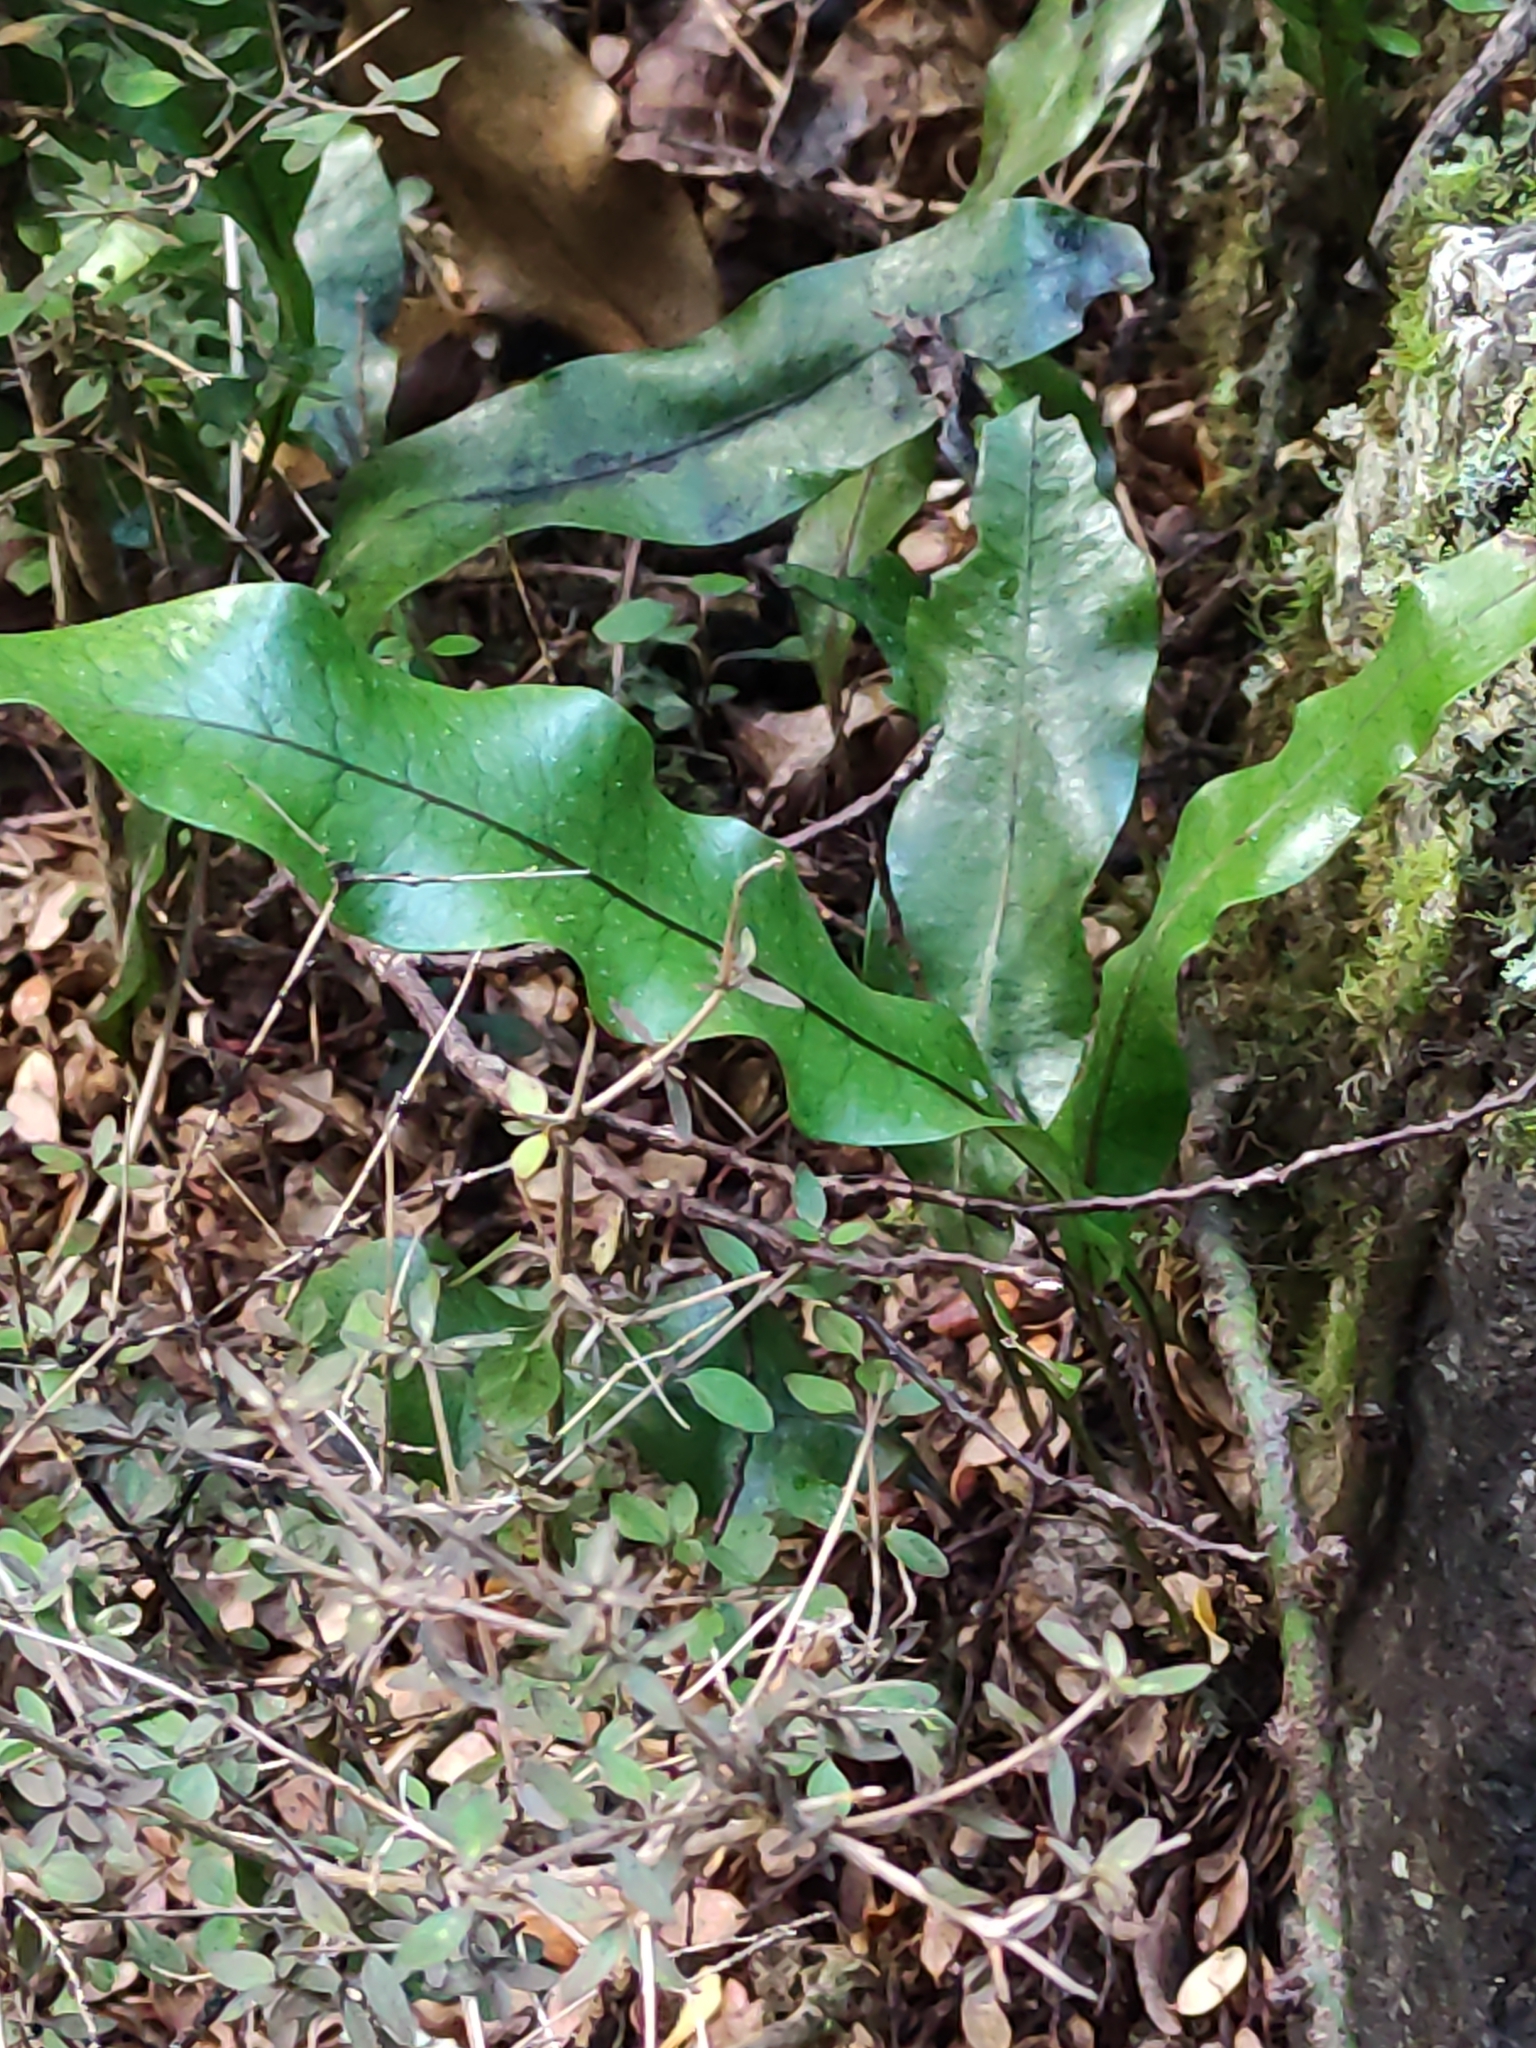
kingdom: Plantae
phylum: Tracheophyta
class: Polypodiopsida
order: Polypodiales
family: Polypodiaceae
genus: Lecanopteris
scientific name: Lecanopteris pustulata
